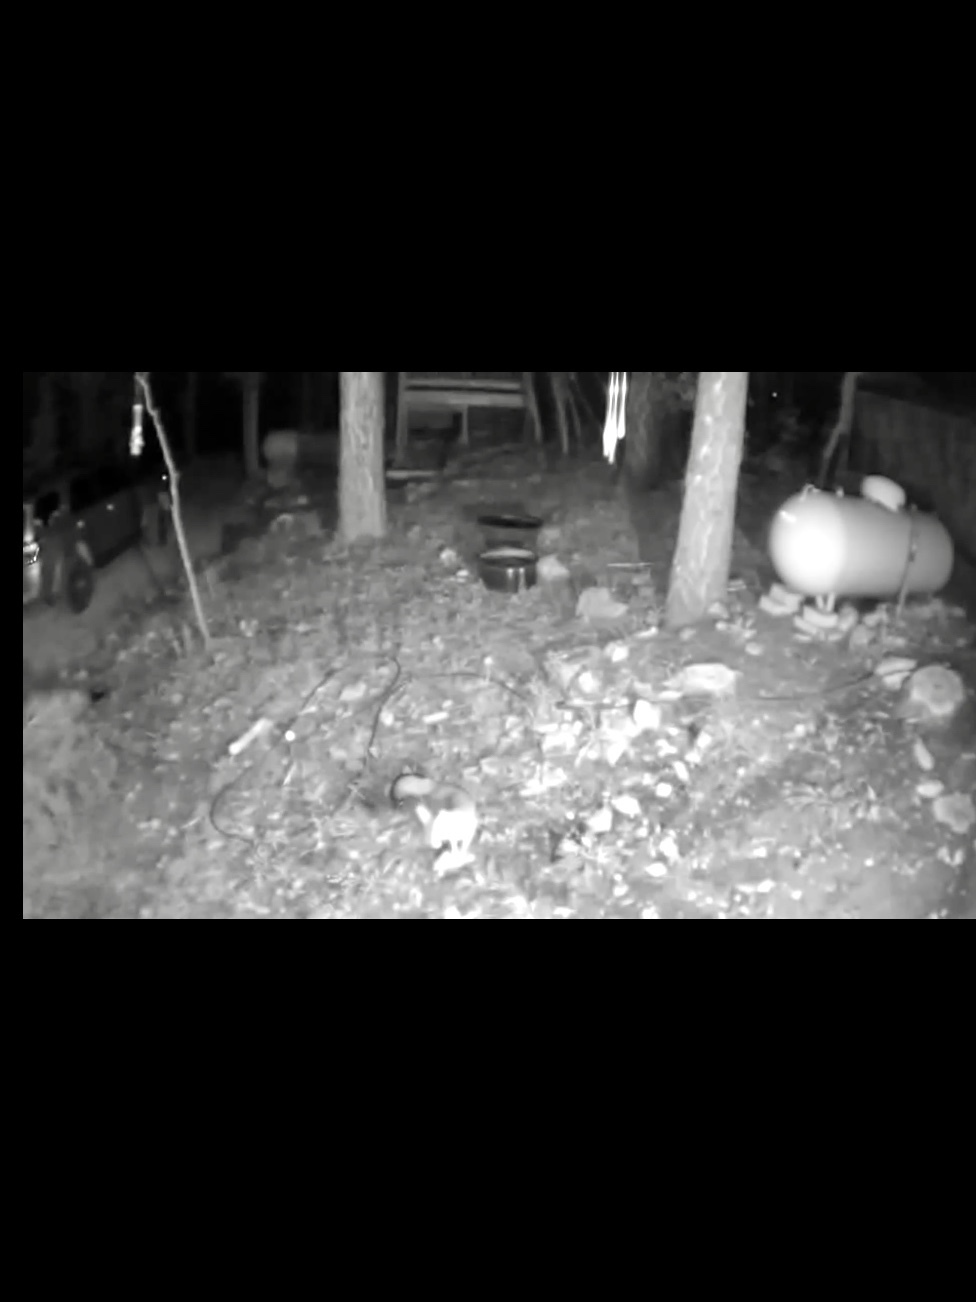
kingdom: Animalia
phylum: Chordata
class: Mammalia
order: Carnivora
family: Canidae
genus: Urocyon
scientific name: Urocyon cinereoargenteus
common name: Gray fox
